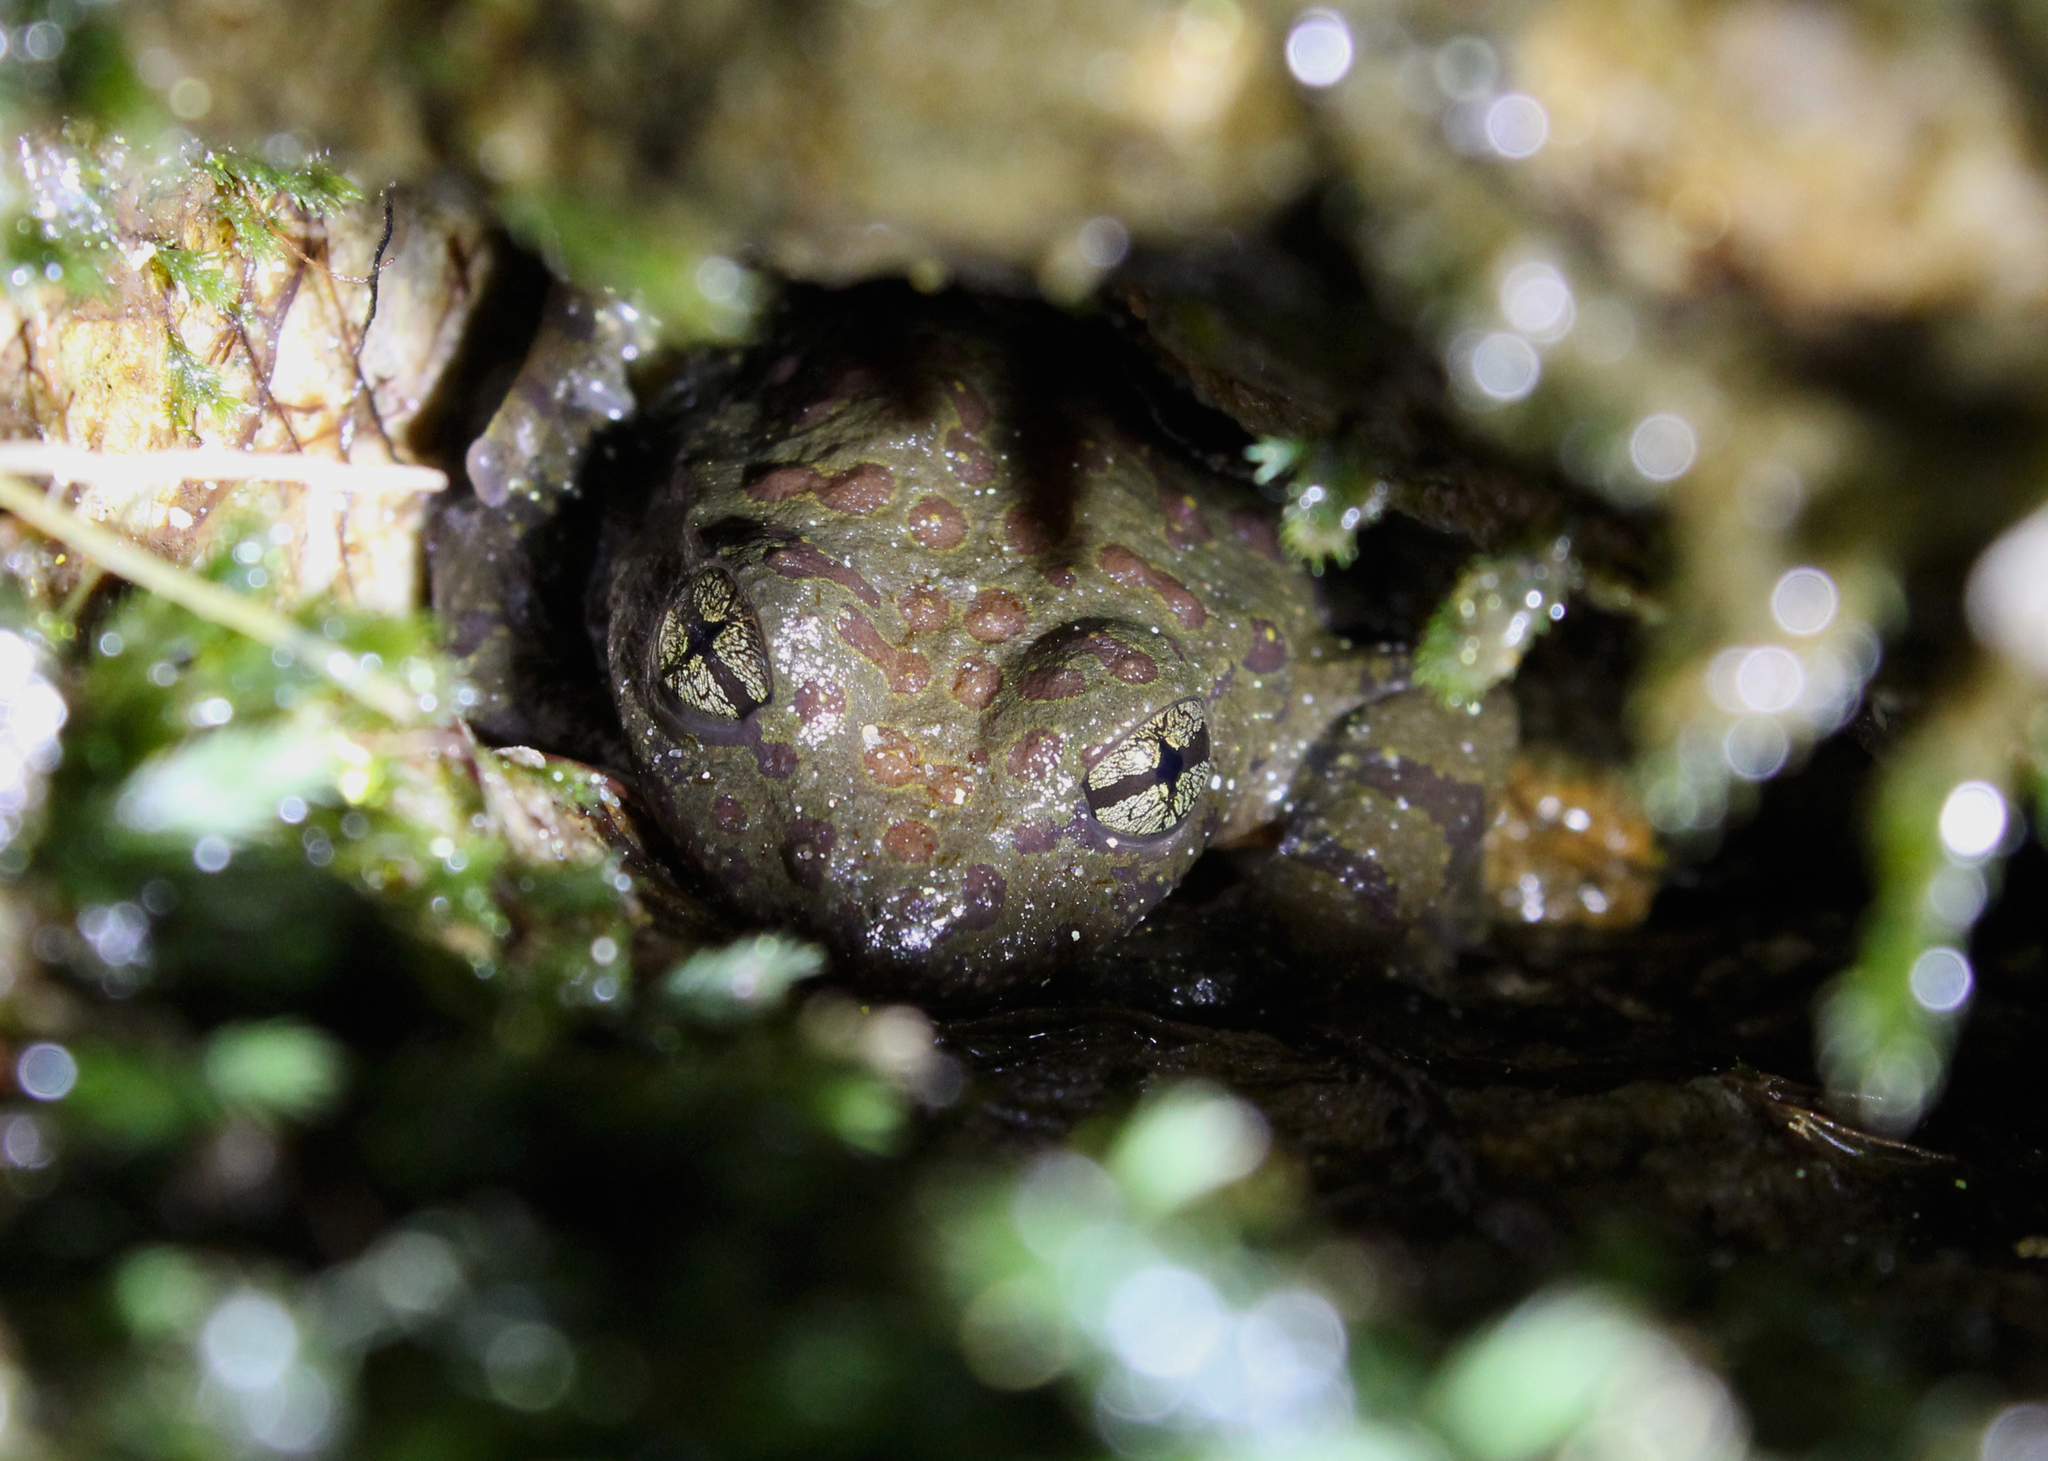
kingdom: Animalia
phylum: Chordata
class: Amphibia
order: Anura
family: Heleophrynidae
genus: Heleophryne
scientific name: Heleophryne purcelli
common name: Purcell's ghost frog
